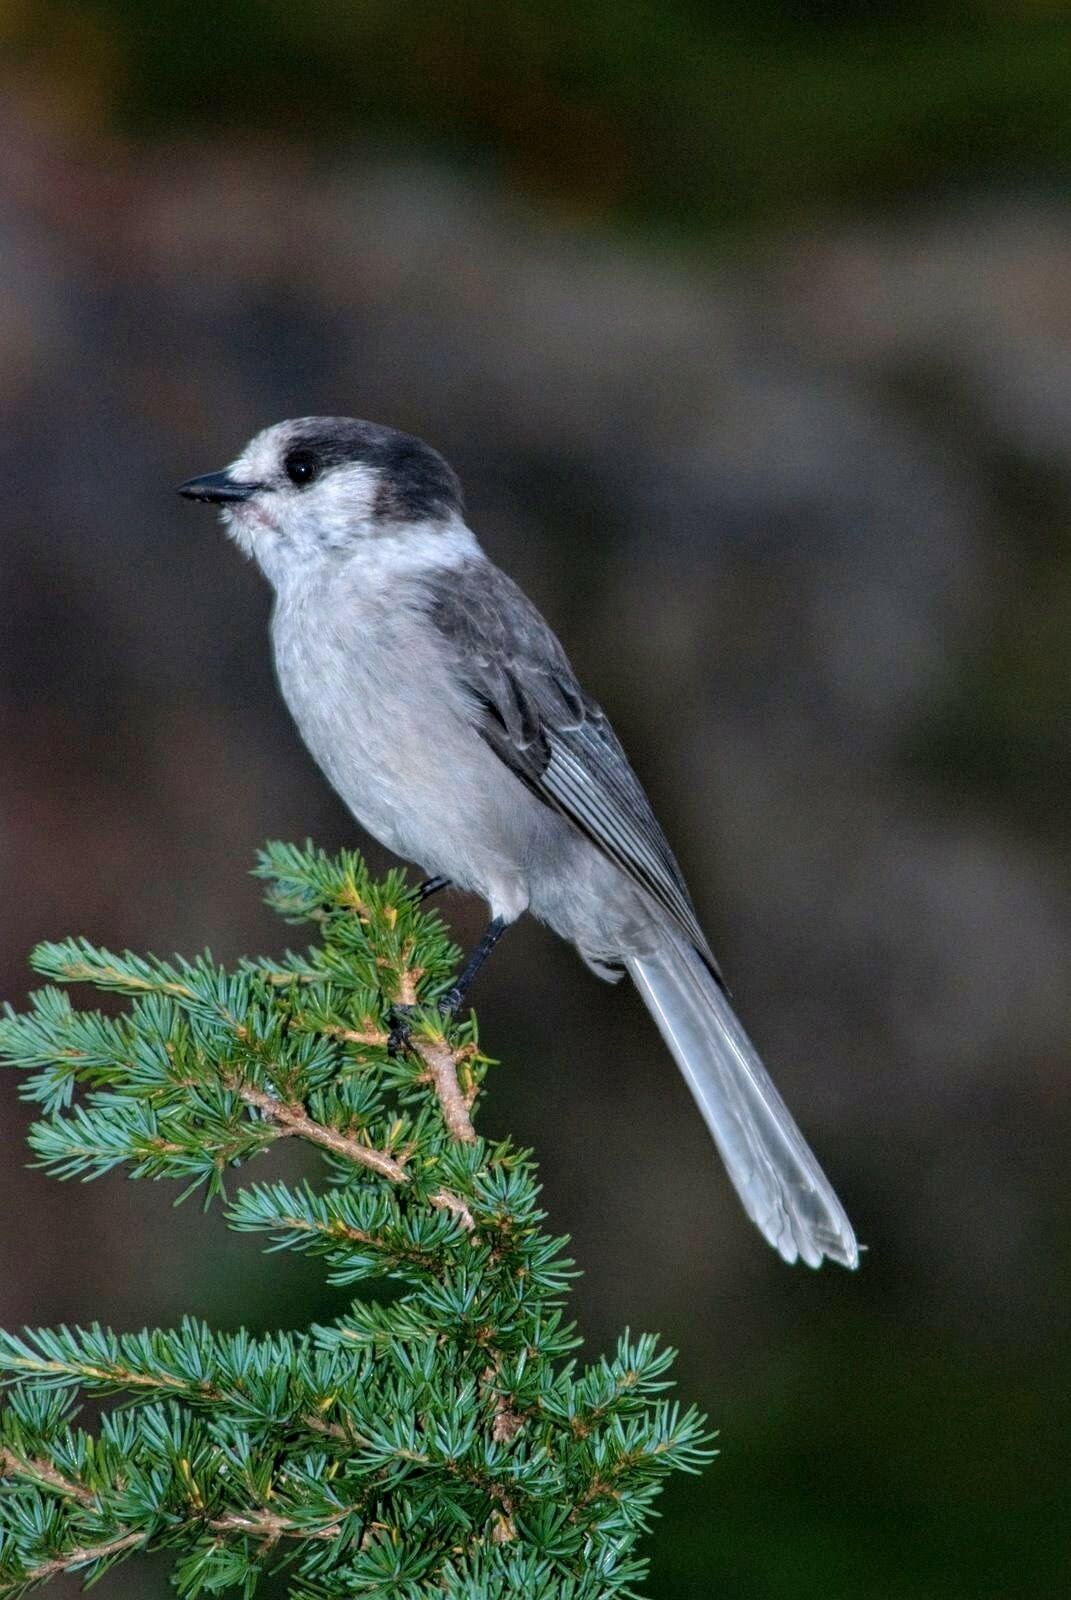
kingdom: Animalia
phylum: Chordata
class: Aves
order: Passeriformes
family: Corvidae
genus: Perisoreus
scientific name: Perisoreus canadensis
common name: Gray jay
